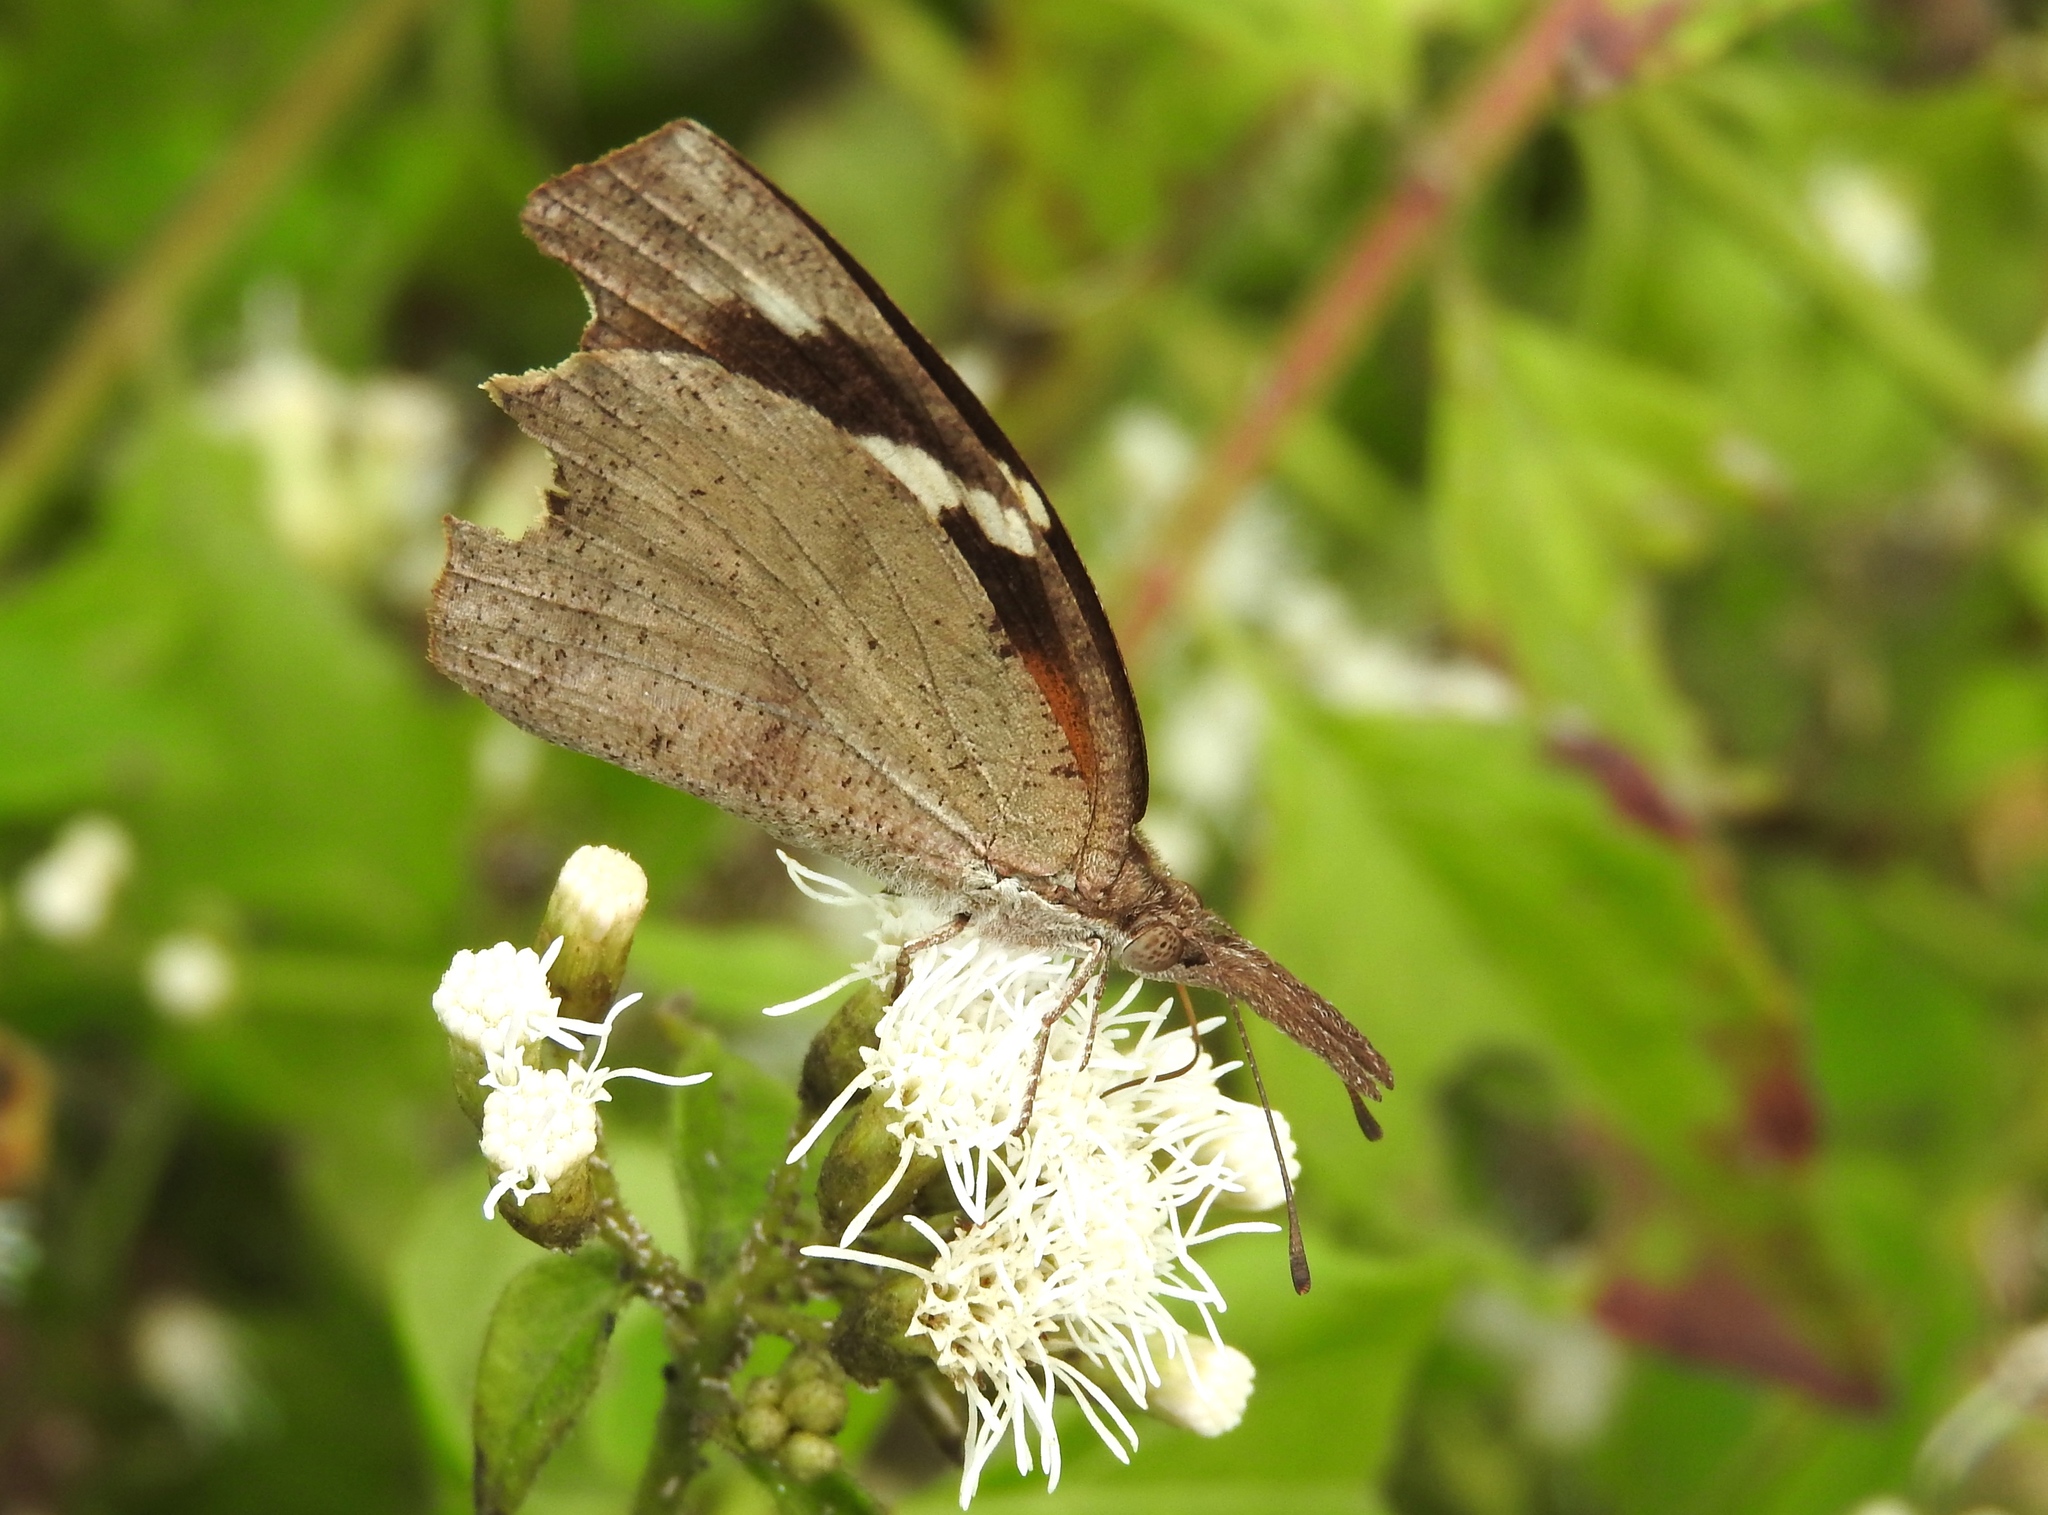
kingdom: Animalia
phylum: Arthropoda
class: Insecta
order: Lepidoptera
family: Nymphalidae
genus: Libytheana
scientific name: Libytheana carinenta
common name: American snout
